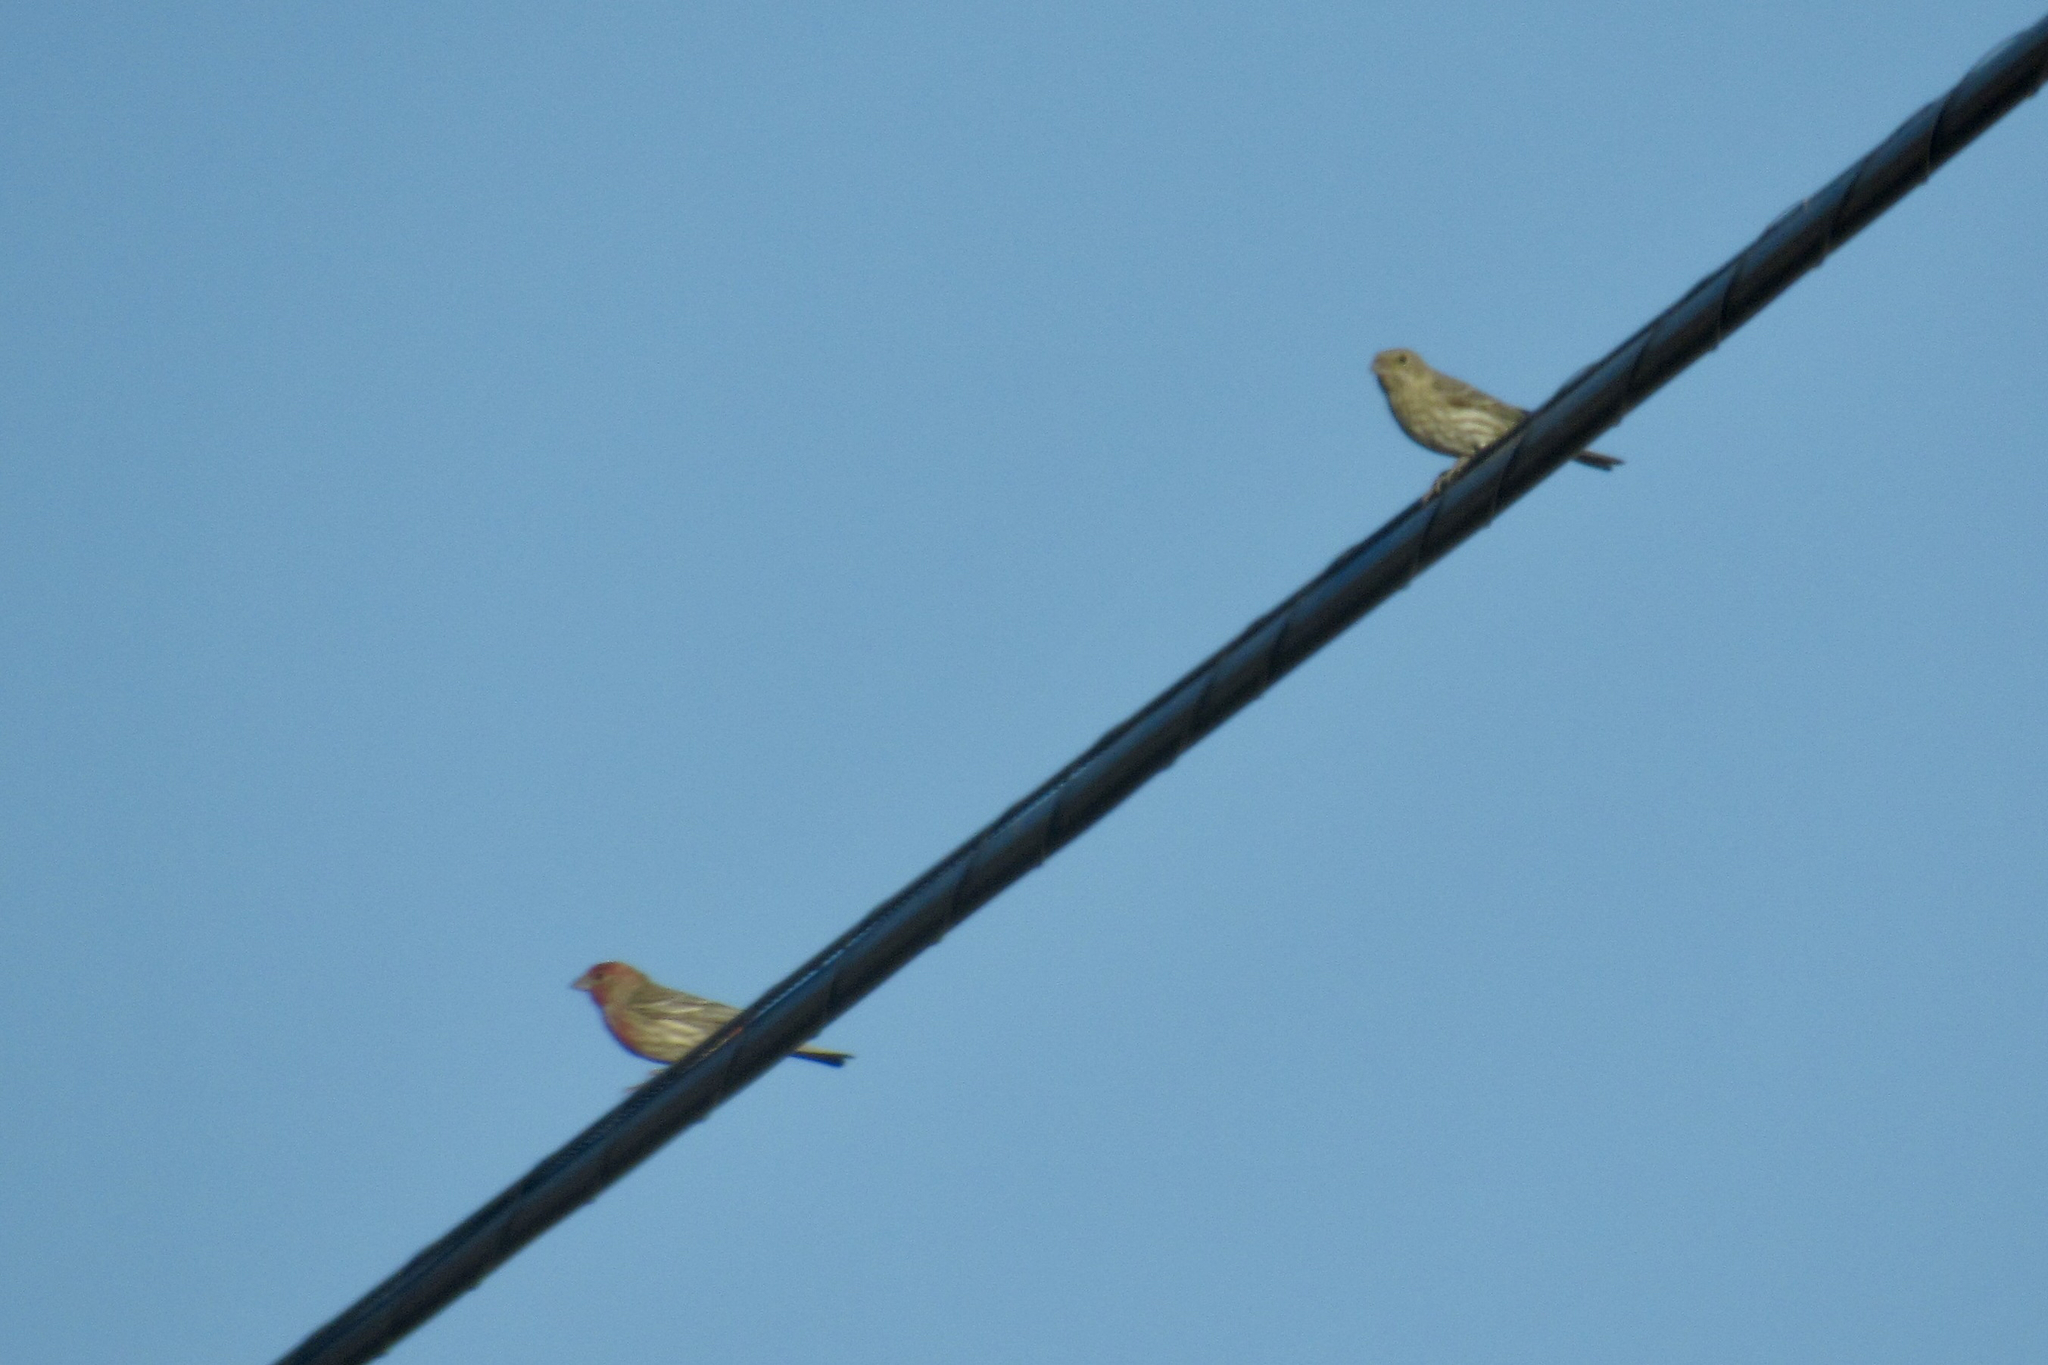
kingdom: Animalia
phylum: Chordata
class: Aves
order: Passeriformes
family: Fringillidae
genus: Haemorhous
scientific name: Haemorhous mexicanus
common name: House finch
